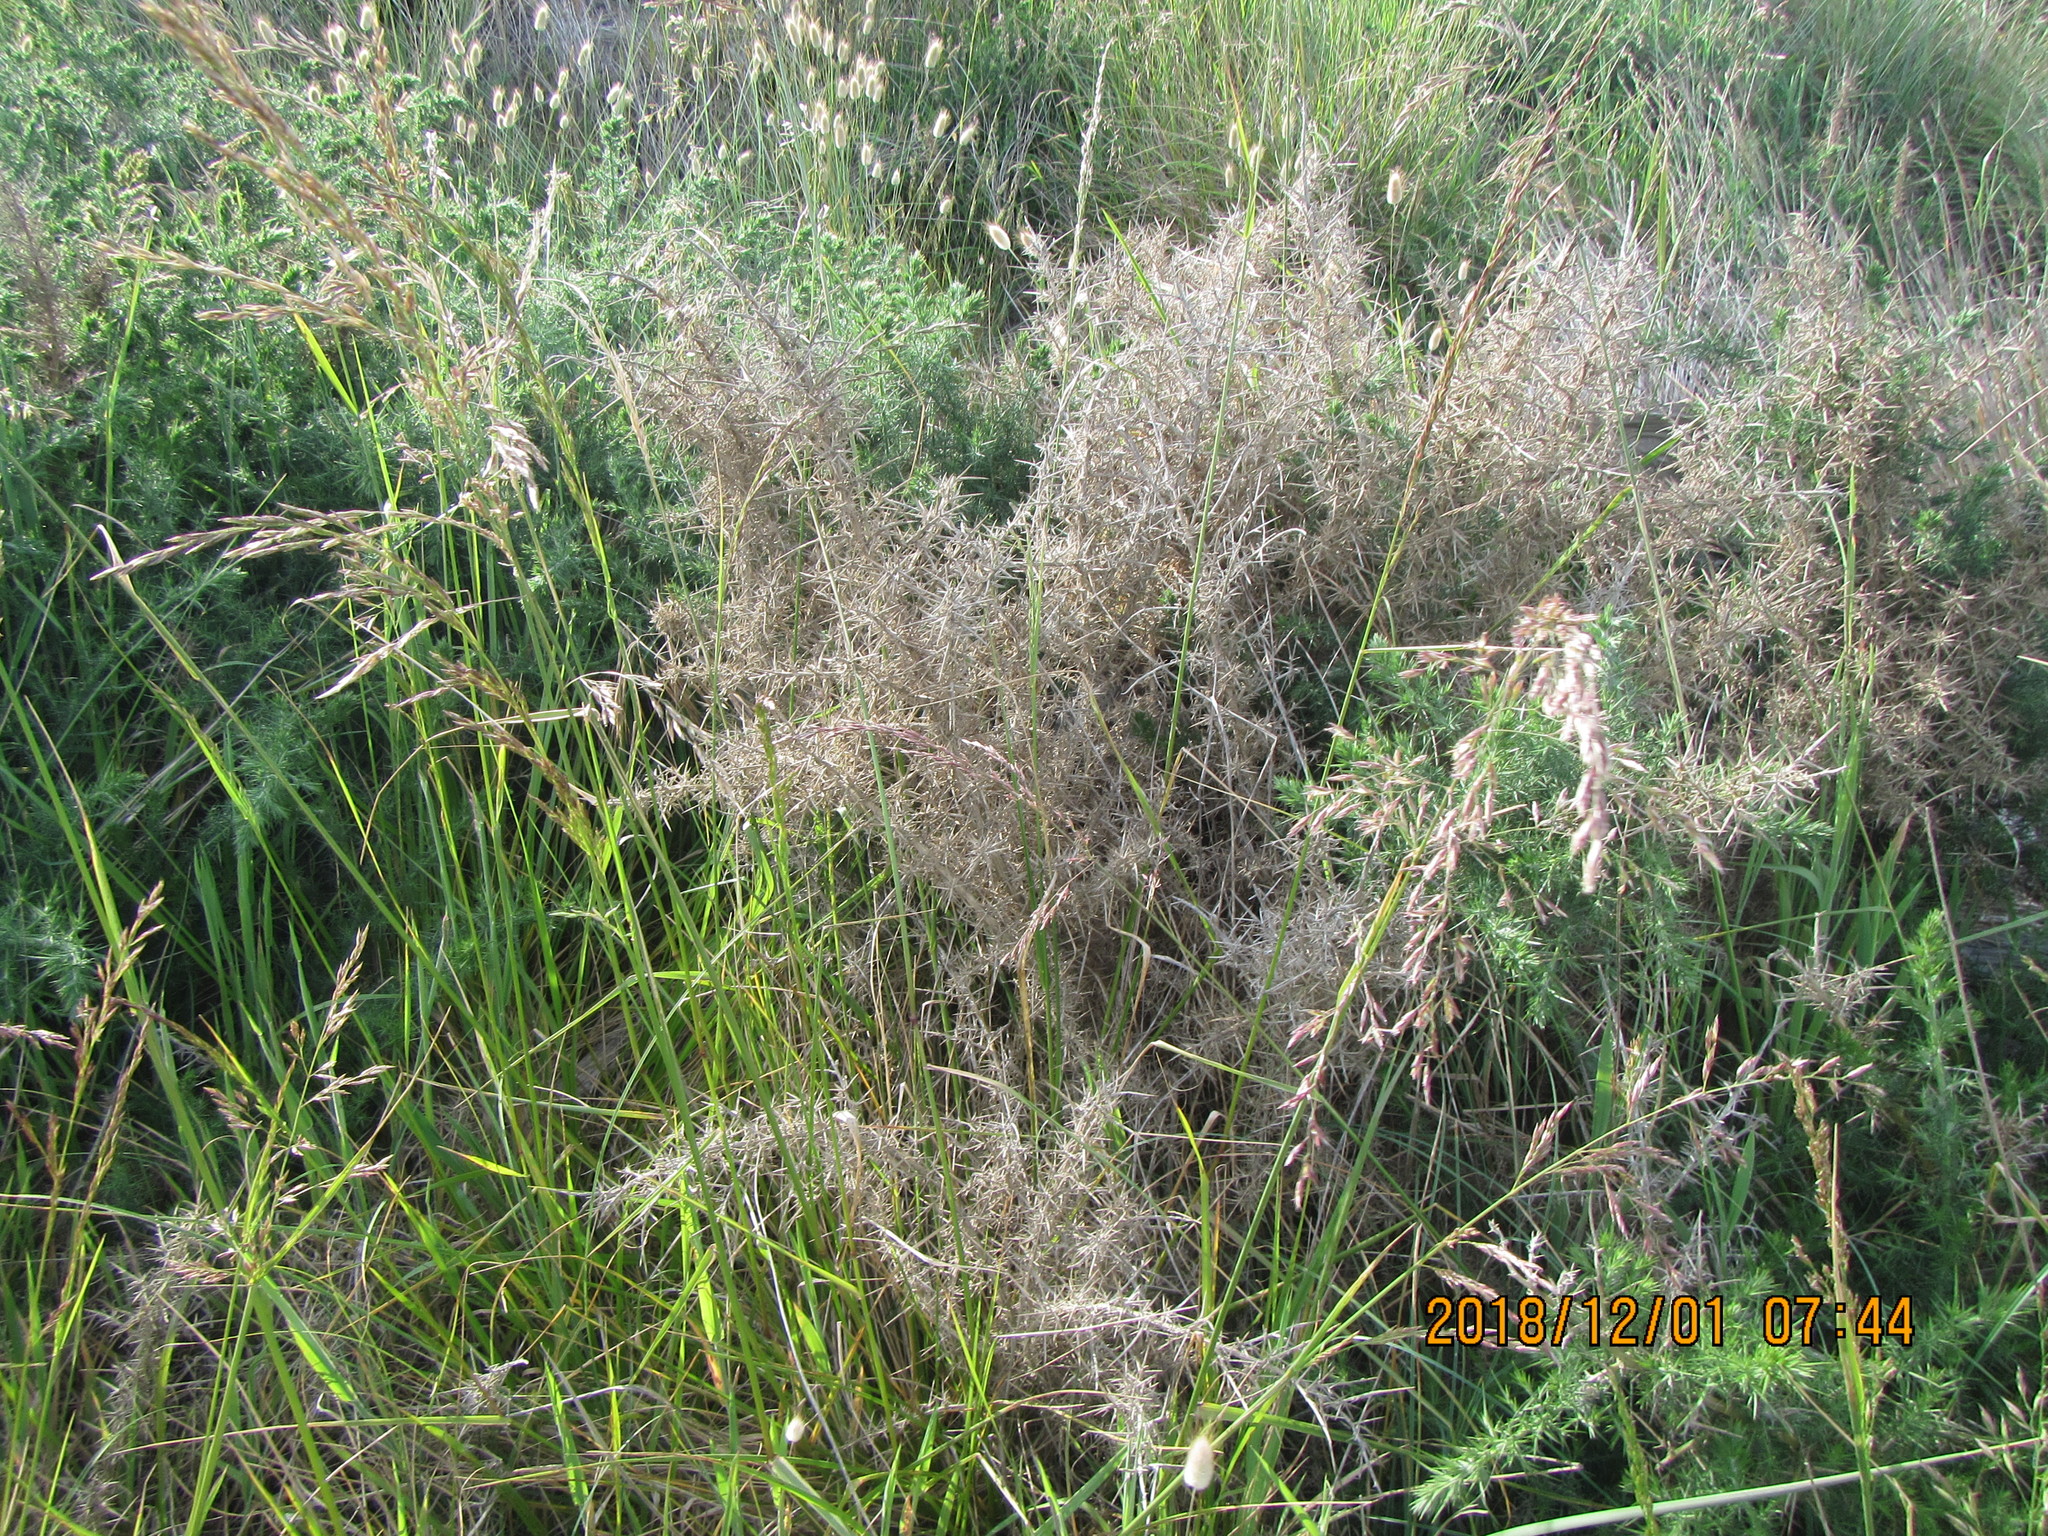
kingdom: Plantae
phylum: Tracheophyta
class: Magnoliopsida
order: Fabales
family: Fabaceae
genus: Ulex
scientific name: Ulex europaeus
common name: Common gorse
